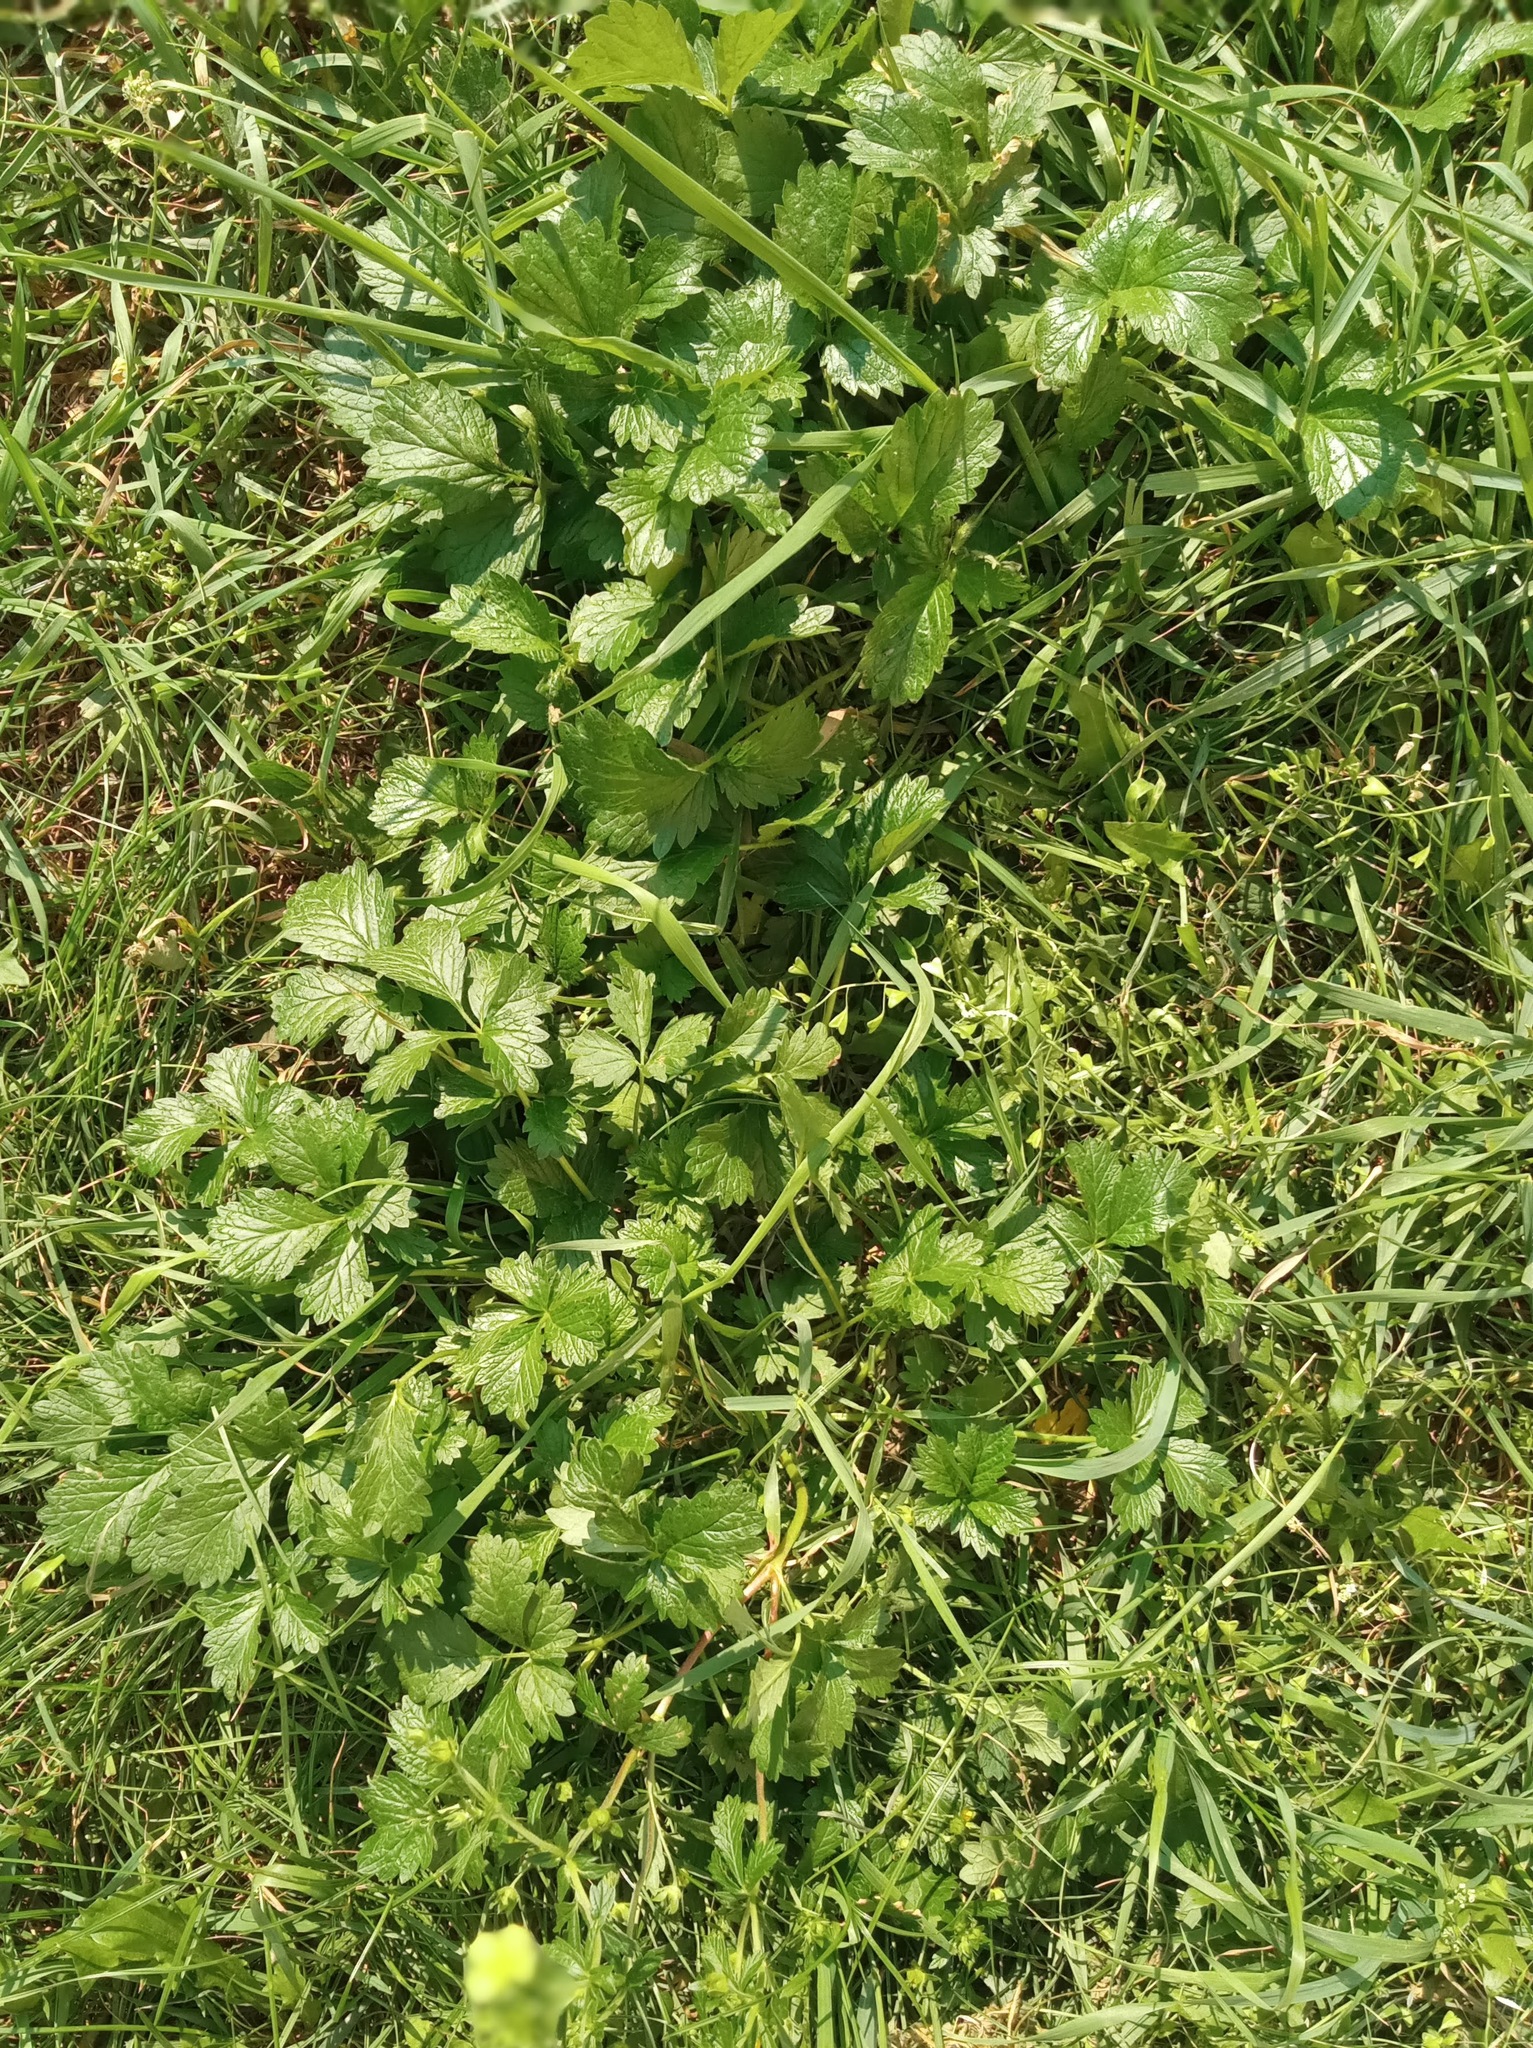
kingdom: Plantae
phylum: Tracheophyta
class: Magnoliopsida
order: Rosales
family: Rosaceae
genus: Potentilla
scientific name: Potentilla intermedia
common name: Downy cinquefoil
